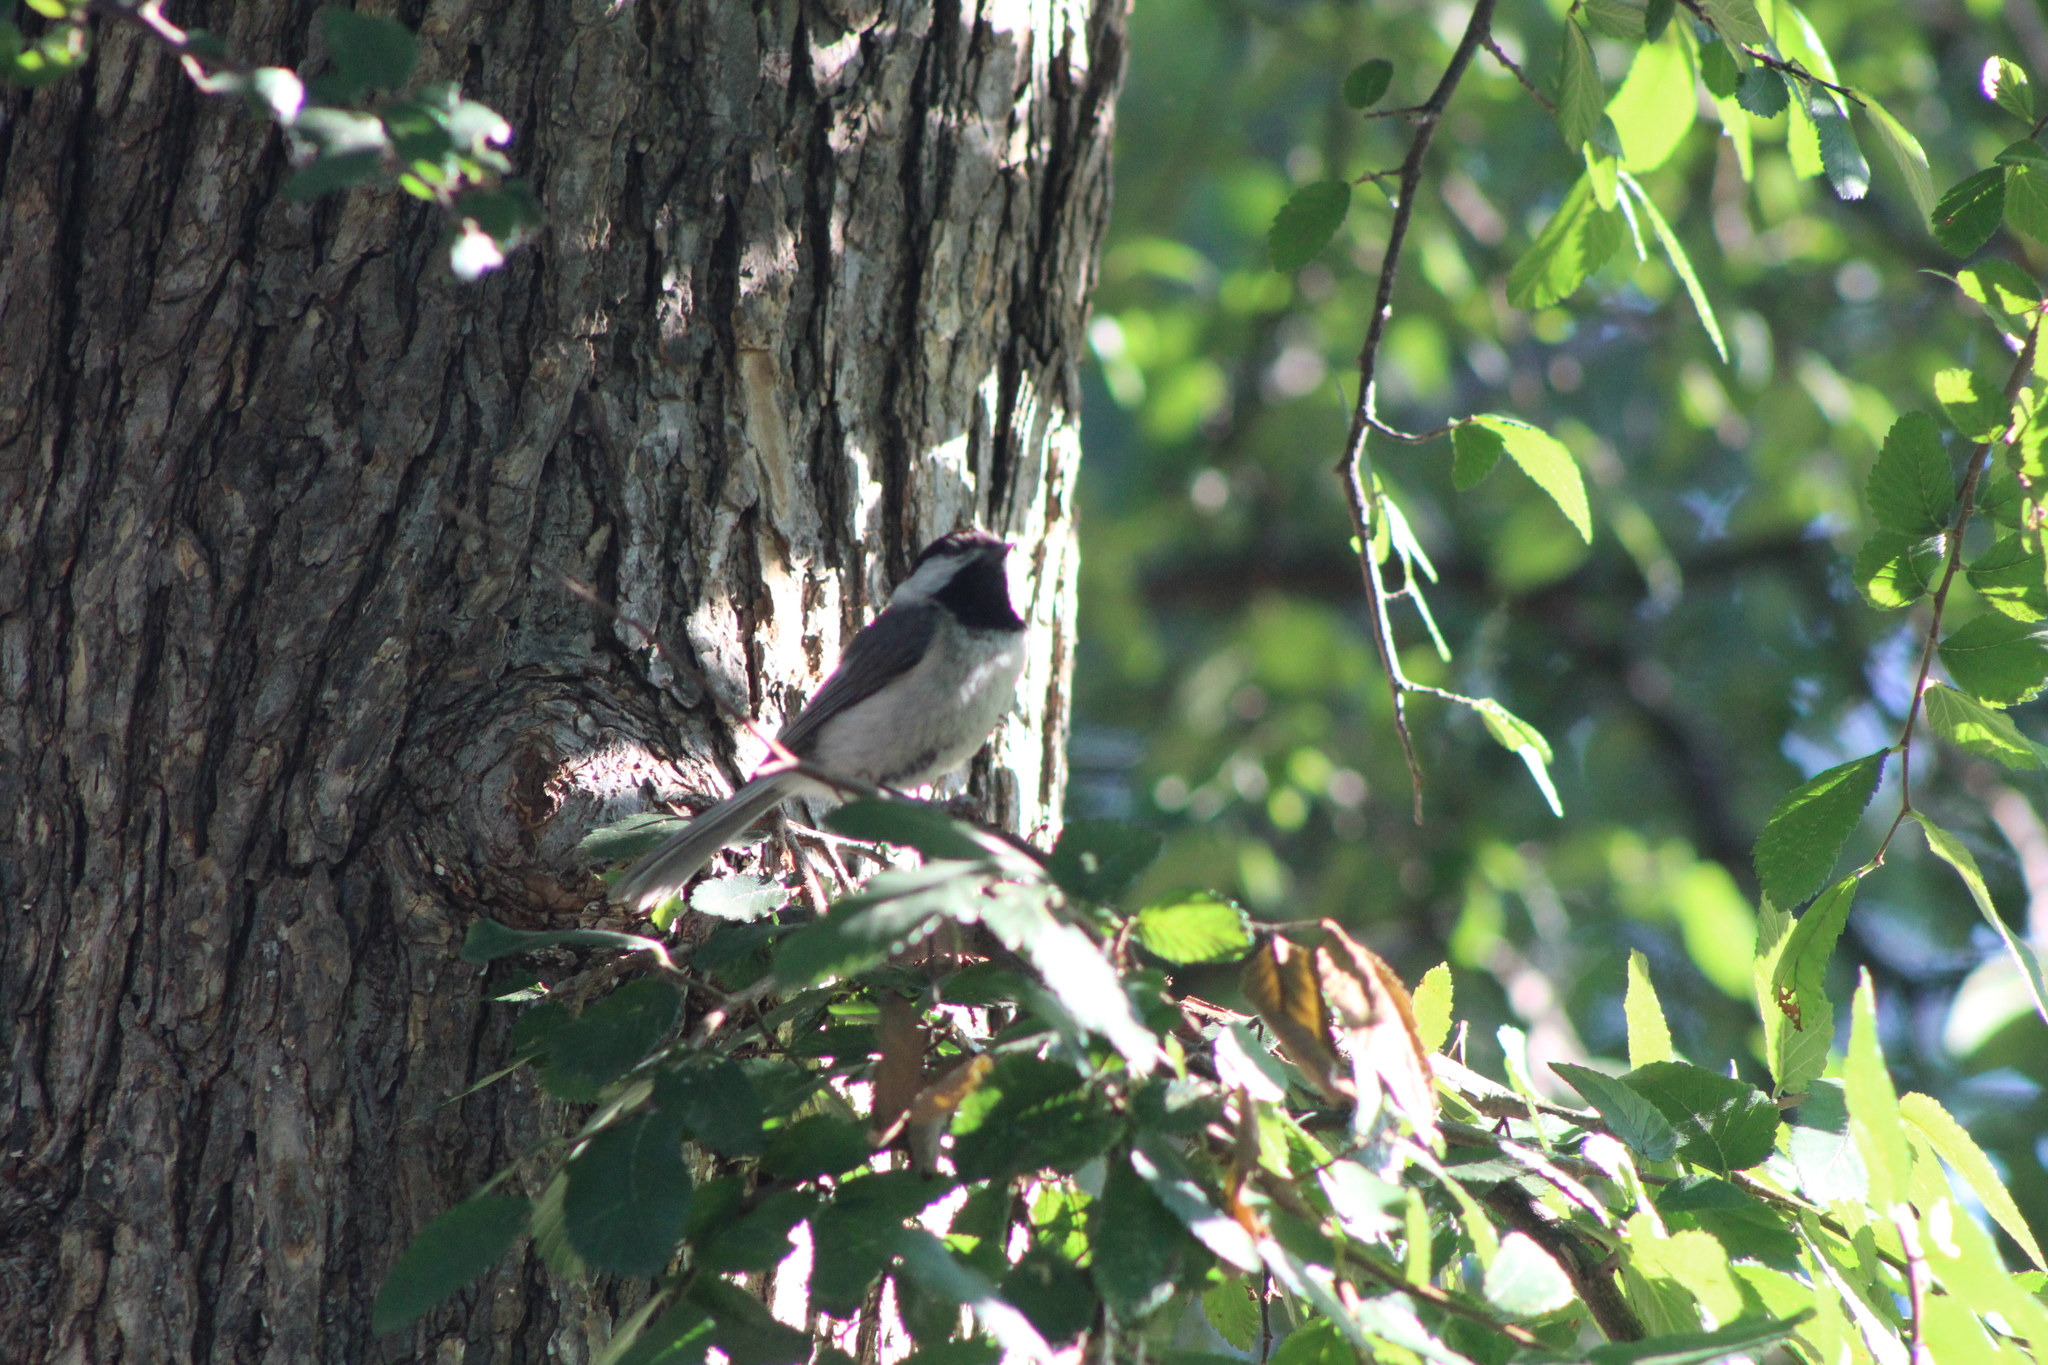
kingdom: Animalia
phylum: Chordata
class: Aves
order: Passeriformes
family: Paridae
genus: Poecile
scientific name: Poecile carolinensis
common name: Carolina chickadee
